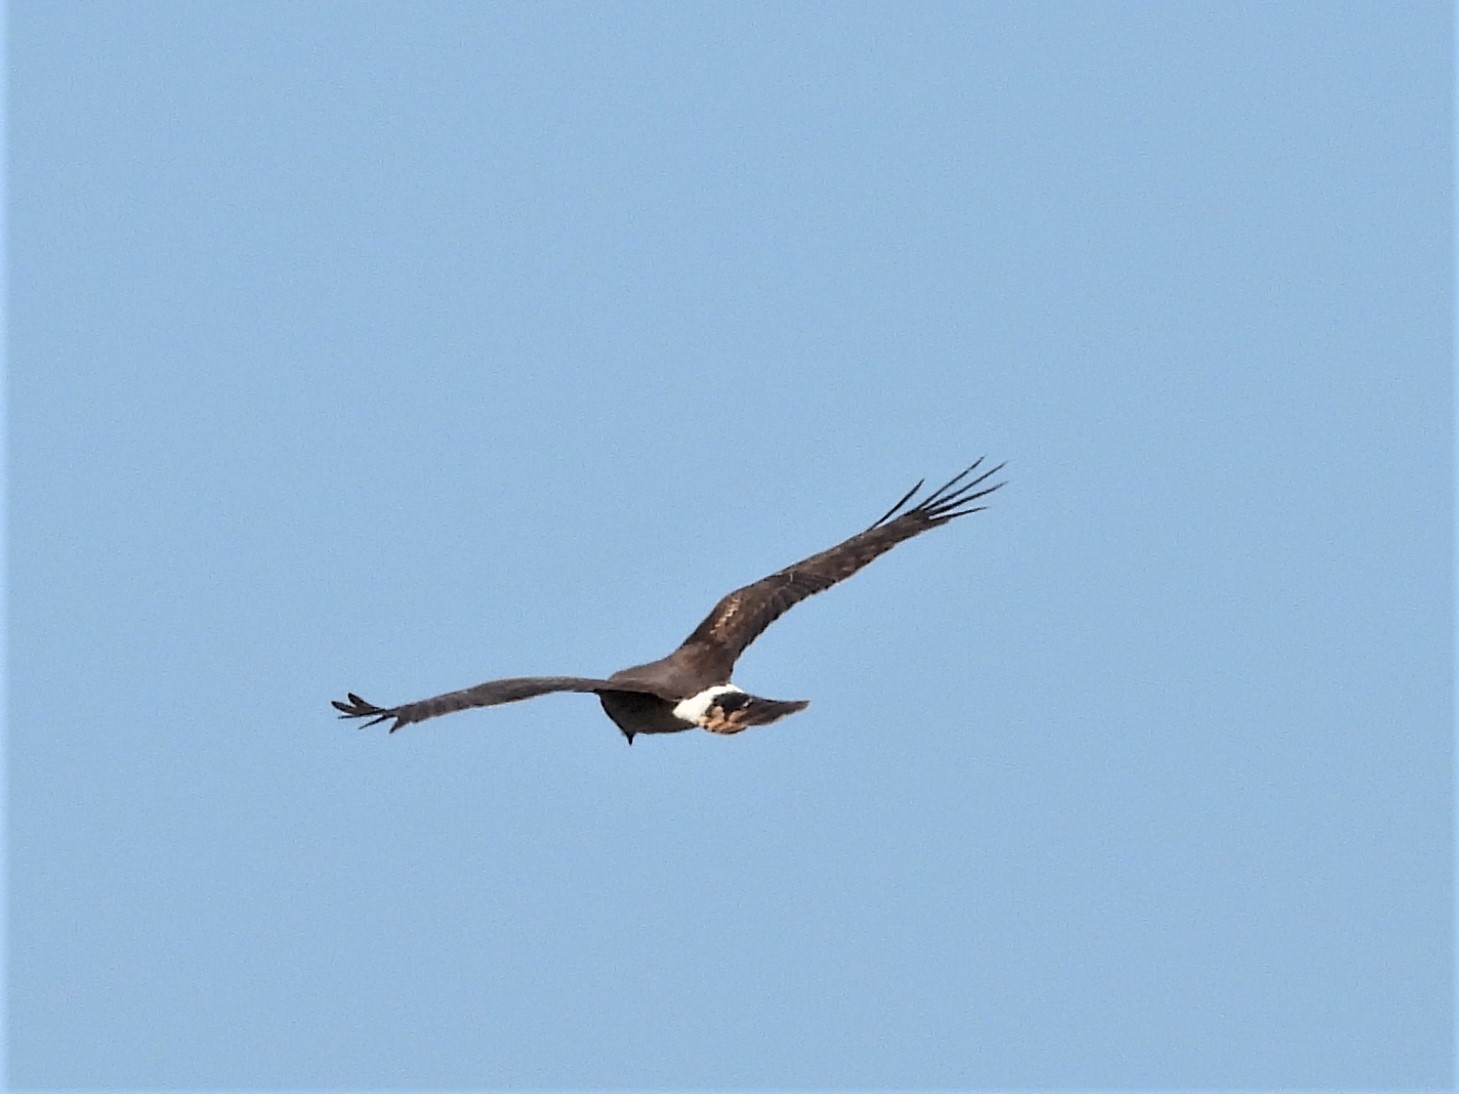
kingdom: Animalia
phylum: Chordata
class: Aves
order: Accipitriformes
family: Accipitridae
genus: Circus
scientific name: Circus cyaneus
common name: Hen harrier
